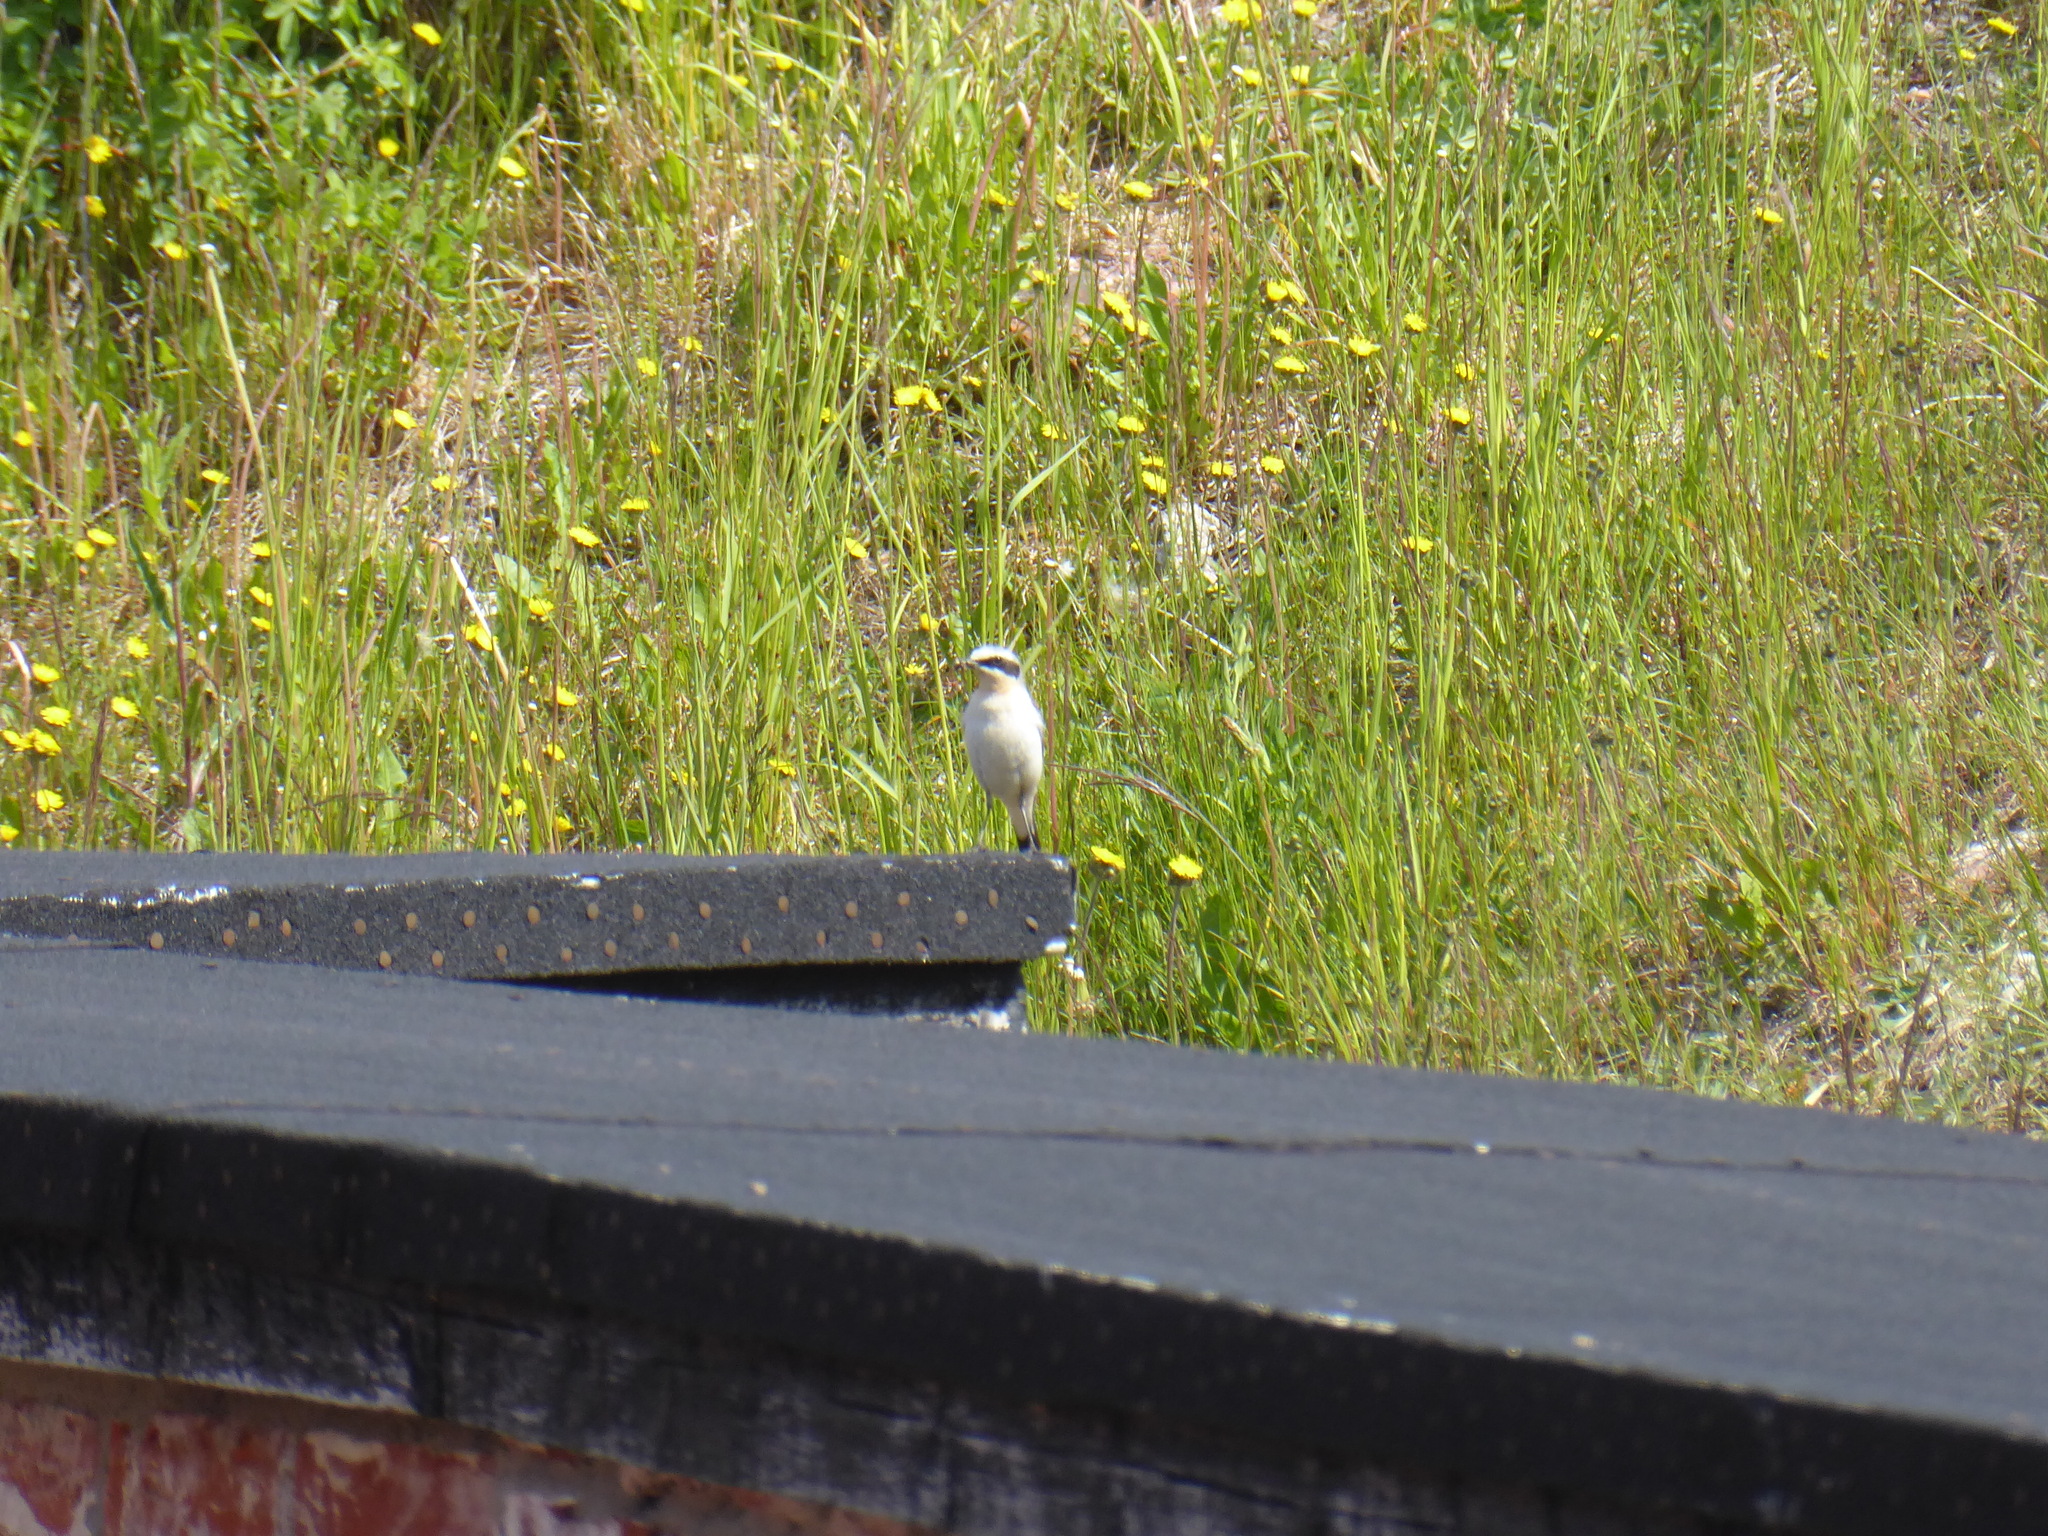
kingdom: Animalia
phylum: Chordata
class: Aves
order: Passeriformes
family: Laniidae
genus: Lanius
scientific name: Lanius collurio
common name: Red-backed shrike
